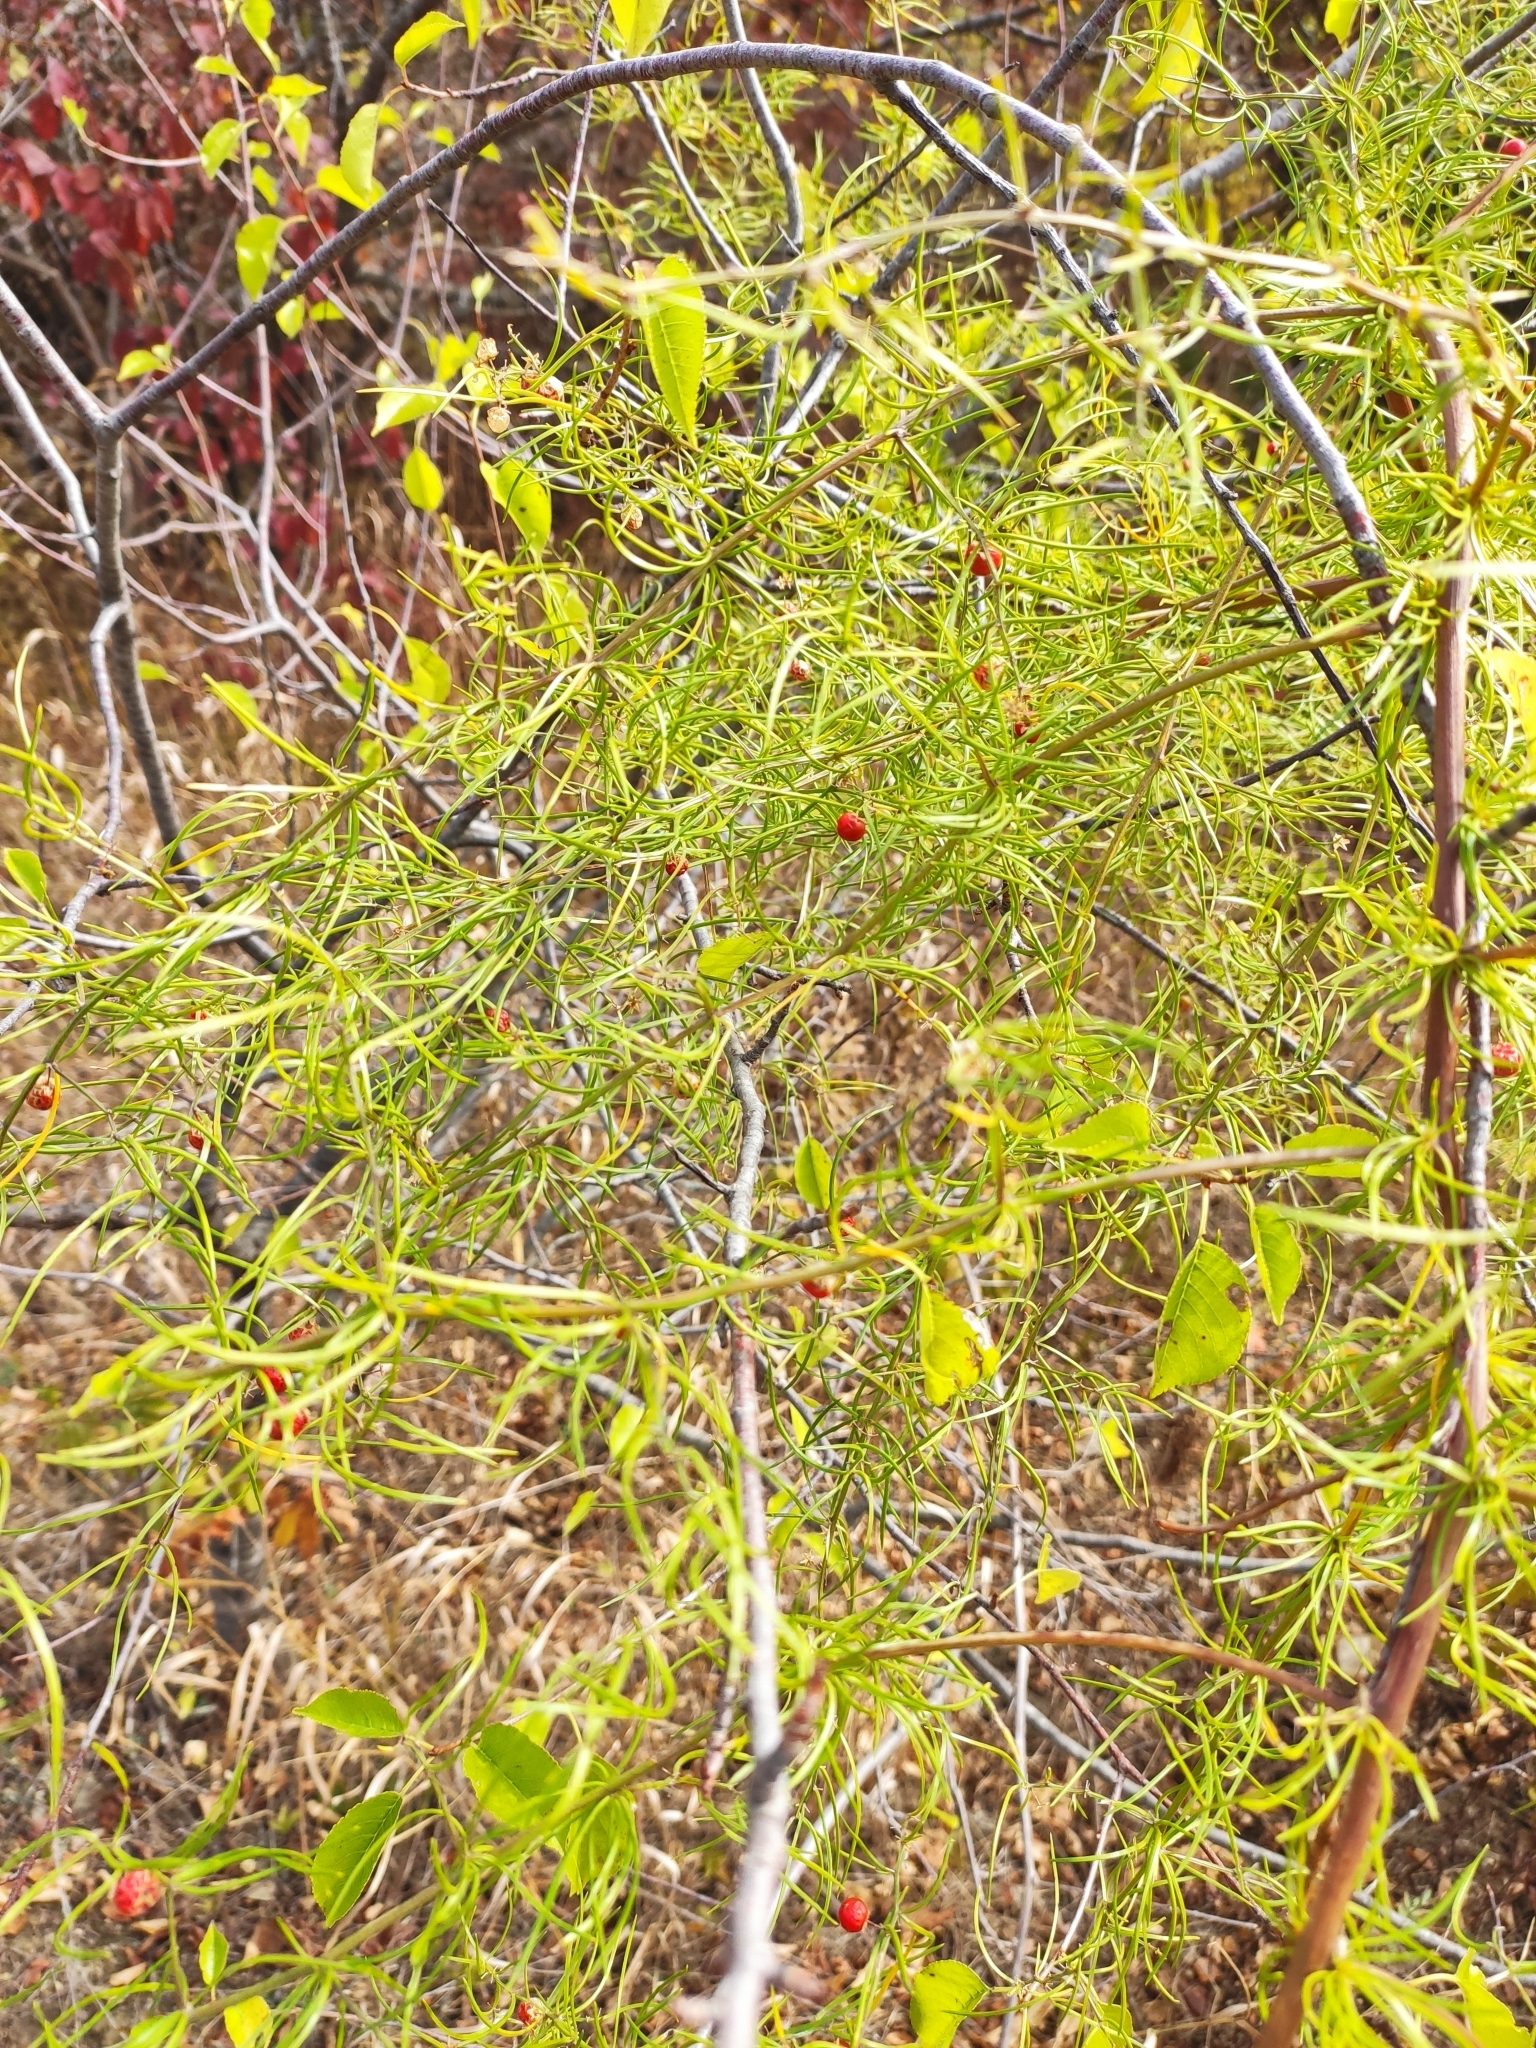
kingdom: Plantae
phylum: Tracheophyta
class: Liliopsida
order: Asparagales
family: Asparagaceae
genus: Asparagus
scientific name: Asparagus verticillatus
